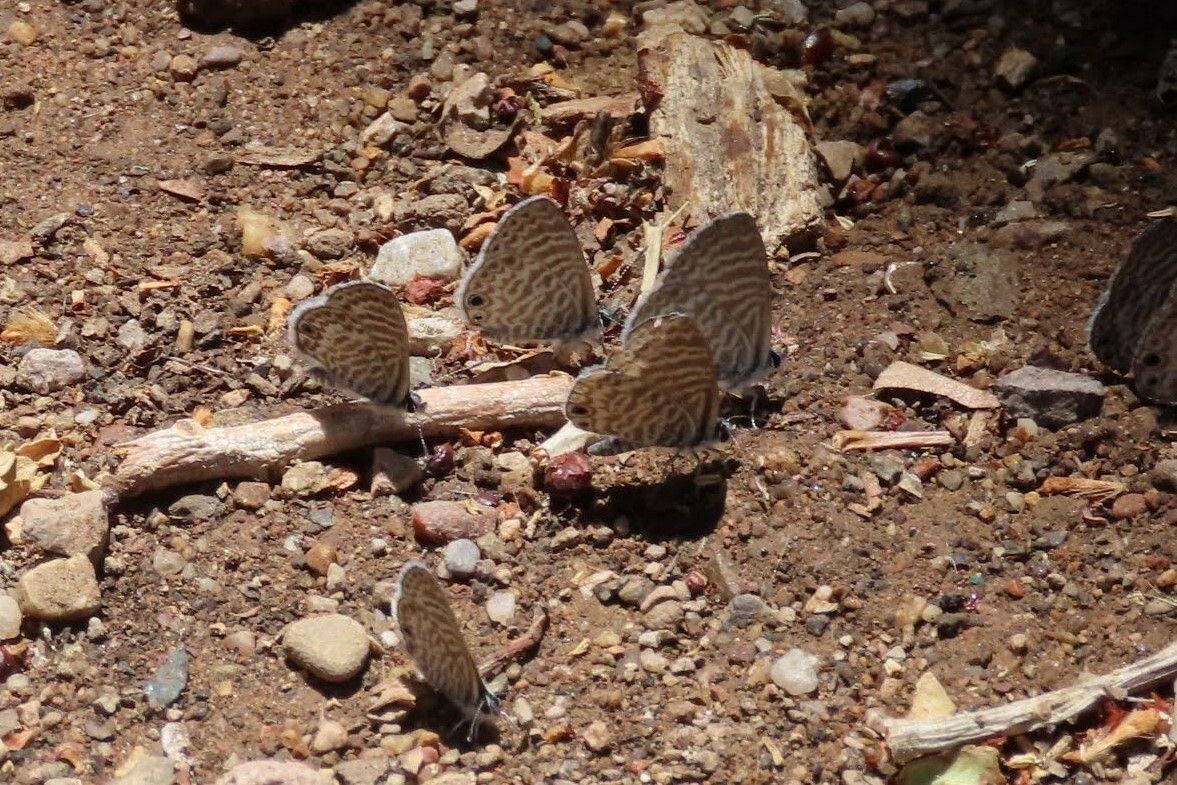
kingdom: Animalia
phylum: Arthropoda
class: Insecta
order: Lepidoptera
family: Lycaenidae
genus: Leptotes
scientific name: Leptotes marina
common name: Marine blue
